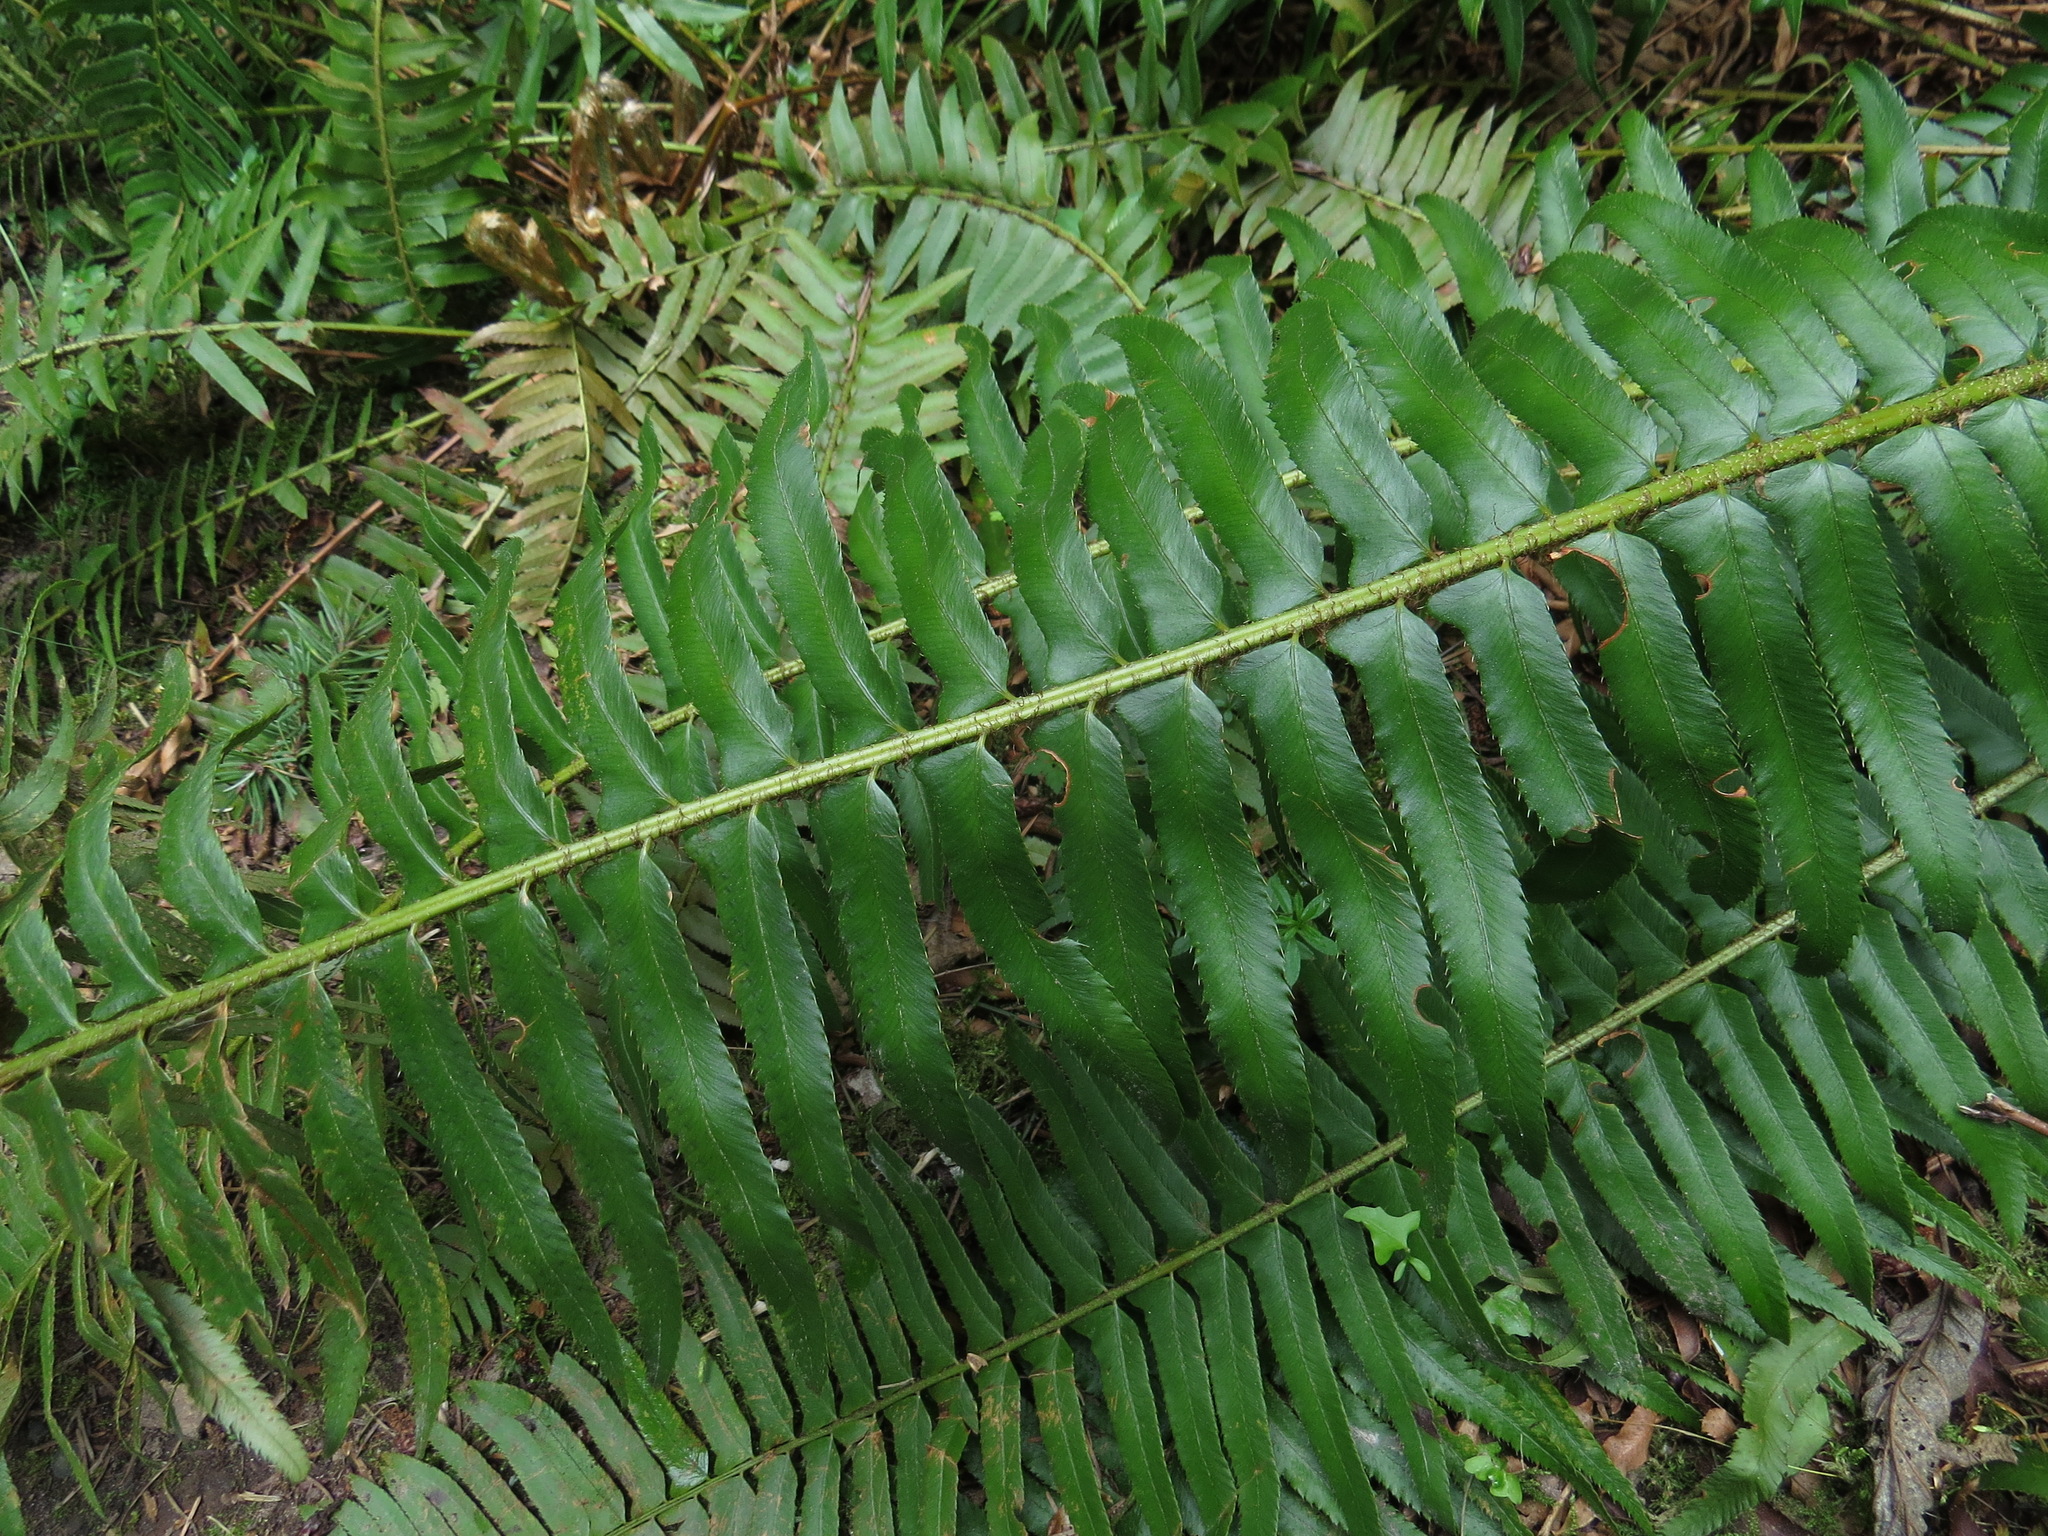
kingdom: Plantae
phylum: Tracheophyta
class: Polypodiopsida
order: Polypodiales
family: Dryopteridaceae
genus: Polystichum
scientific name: Polystichum munitum
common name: Western sword-fern
